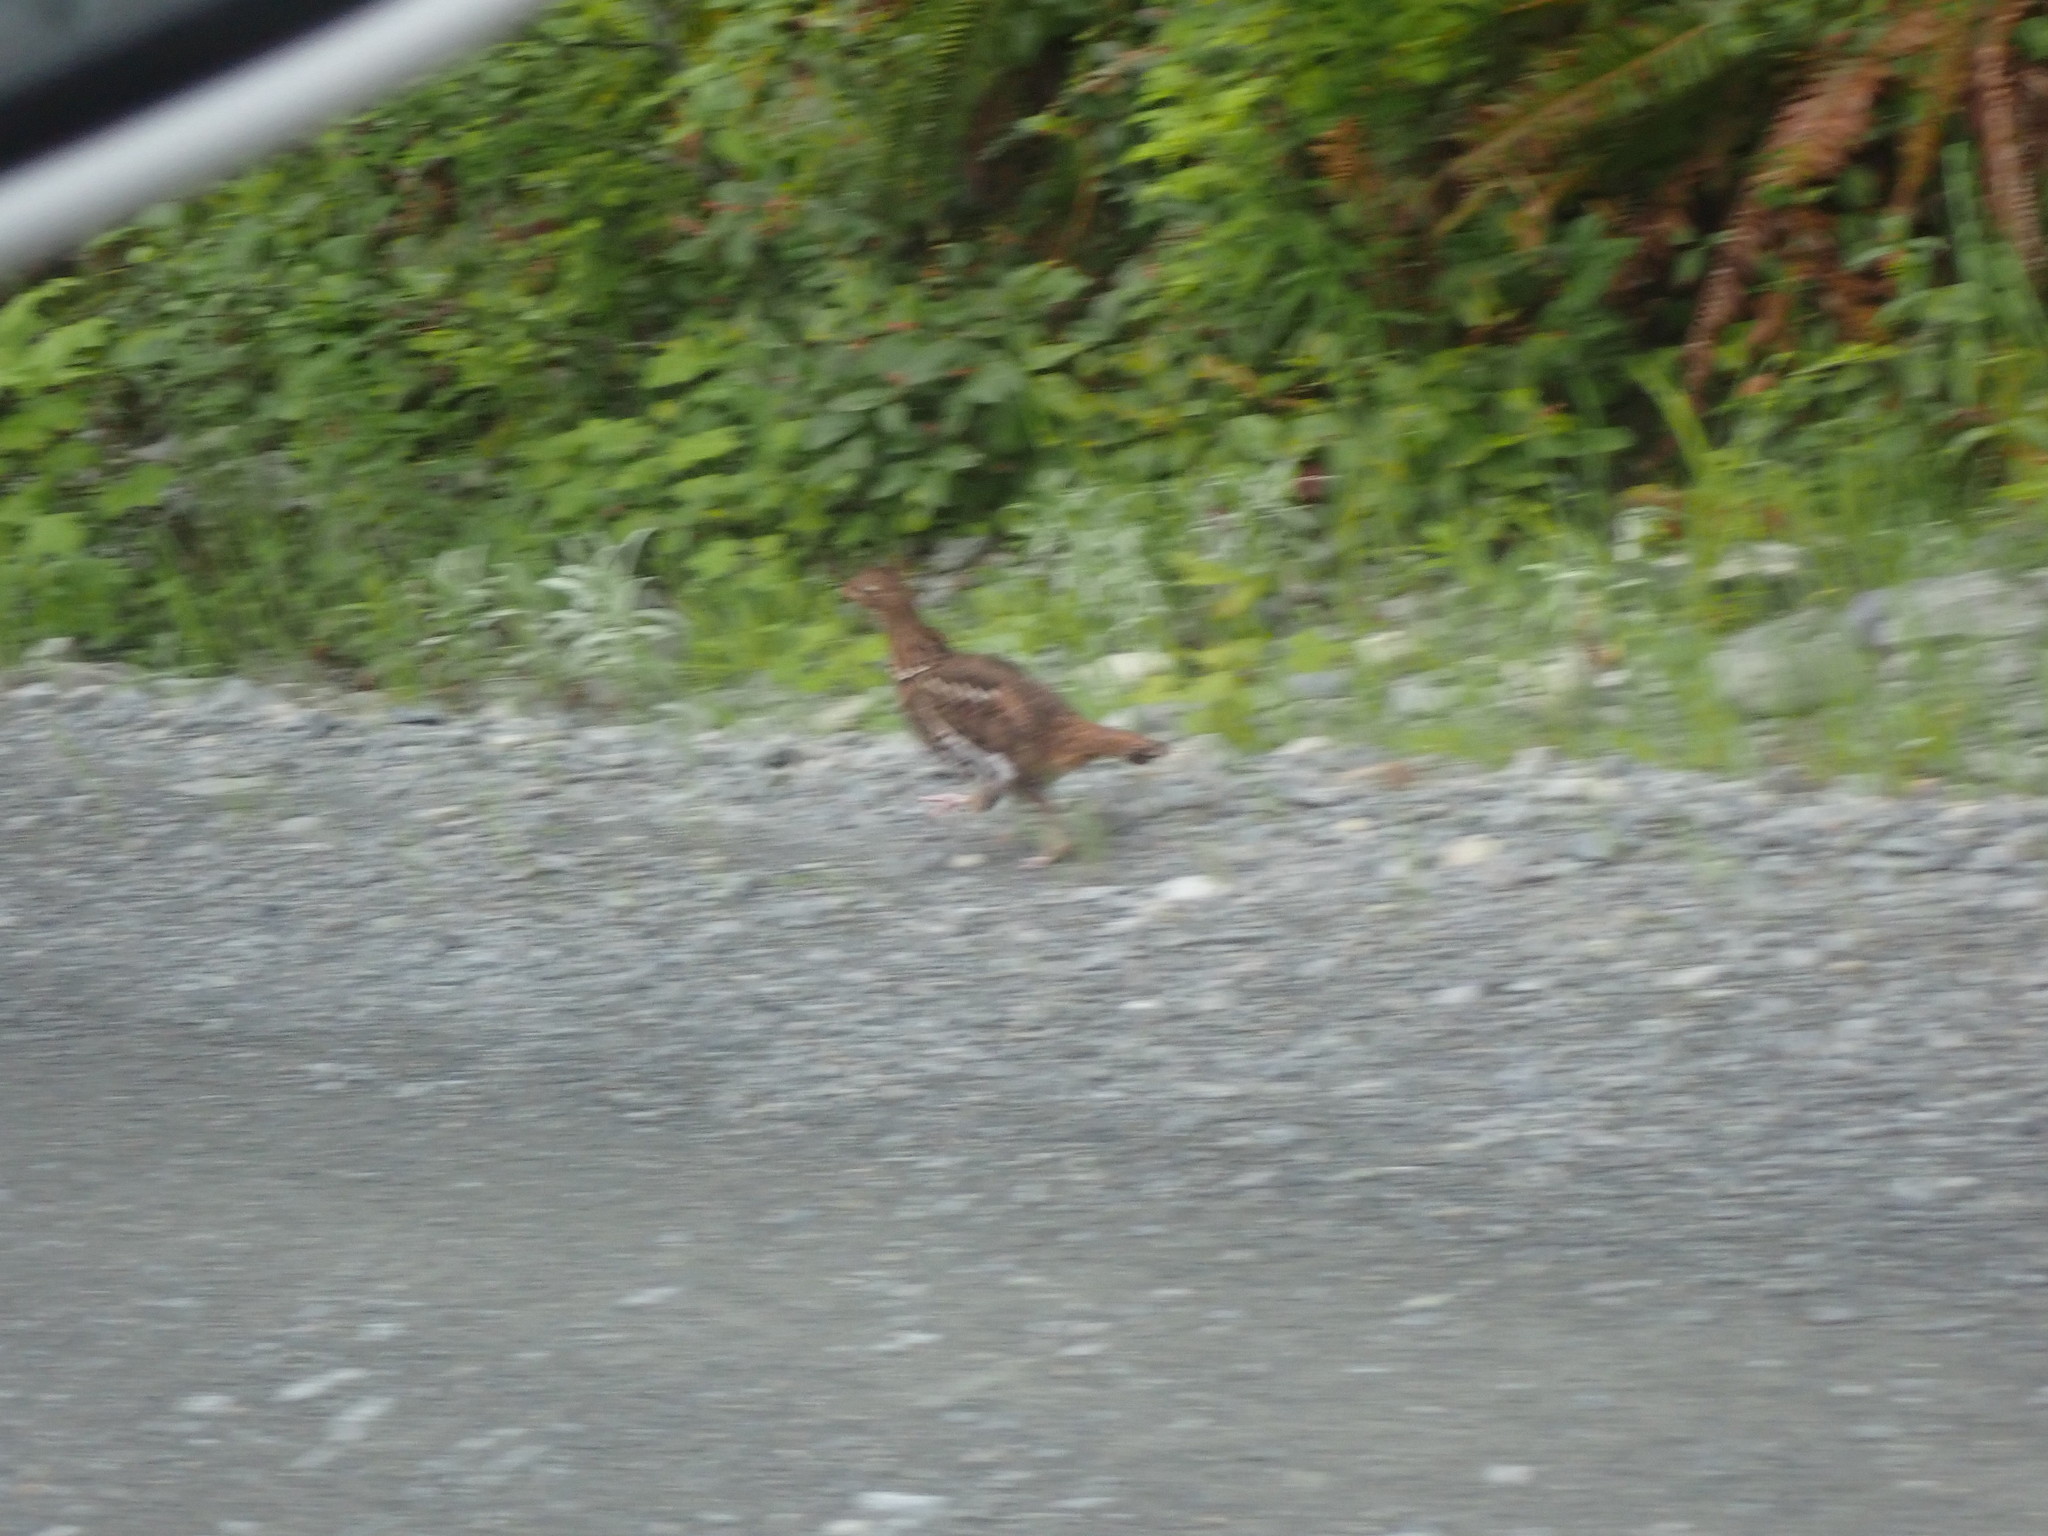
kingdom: Animalia
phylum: Chordata
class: Aves
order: Galliformes
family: Phasianidae
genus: Bonasa
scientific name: Bonasa umbellus
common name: Ruffed grouse
